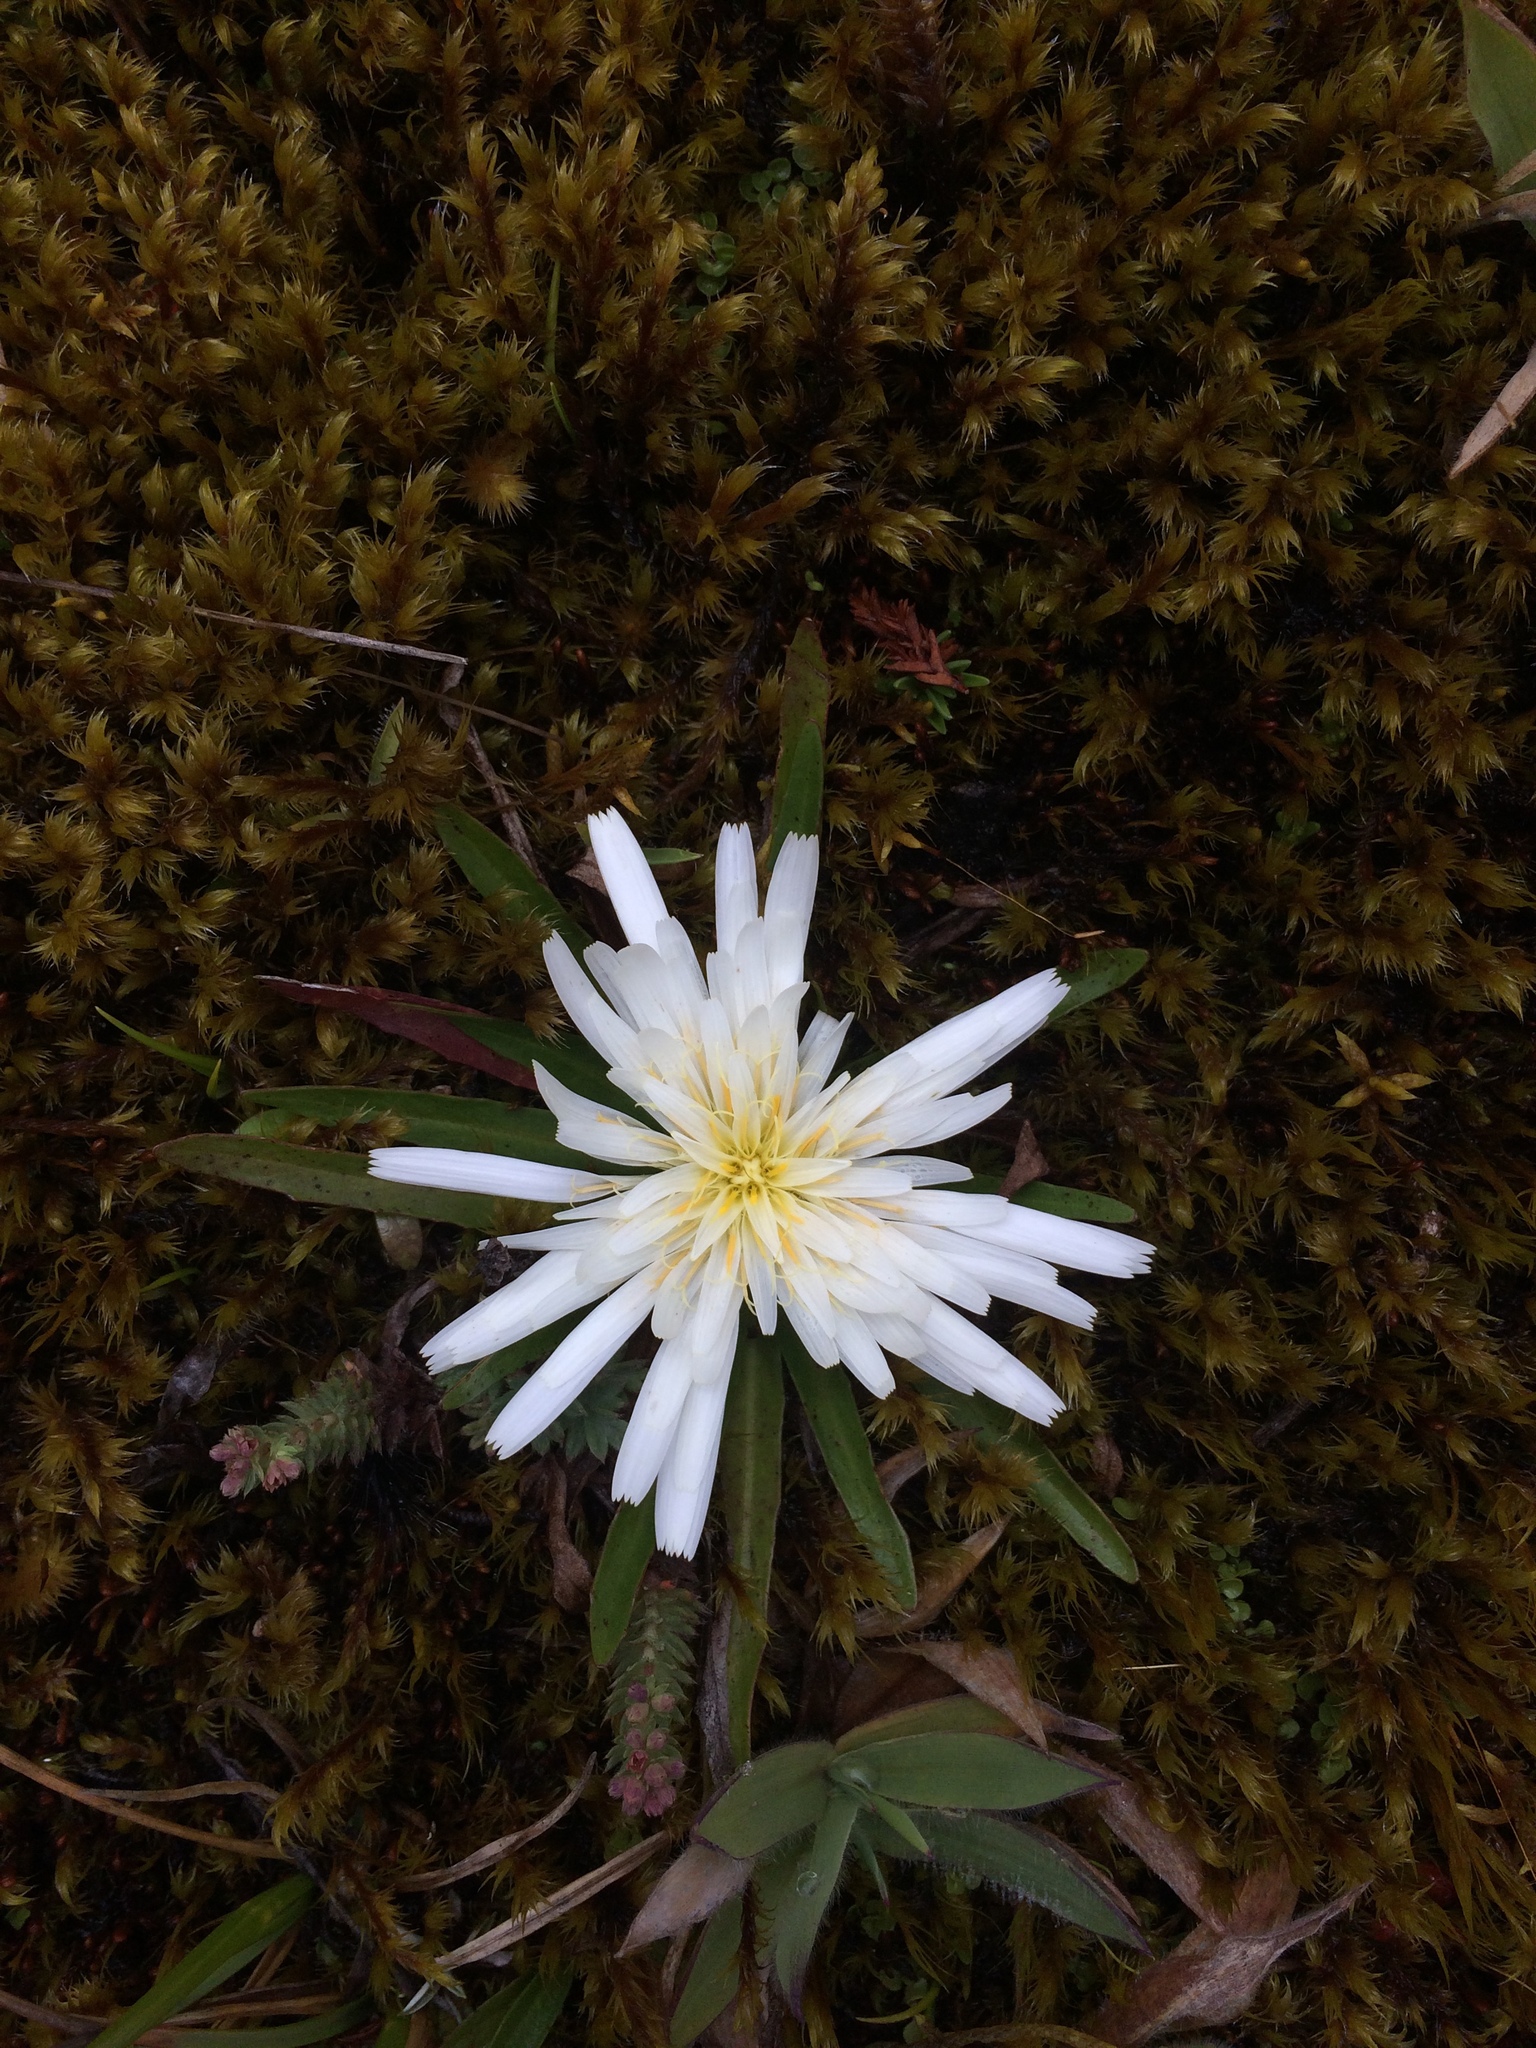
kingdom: Plantae
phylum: Tracheophyta
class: Magnoliopsida
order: Asterales
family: Asteraceae
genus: Hypochaeris
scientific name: Hypochaeris sessiliflora
